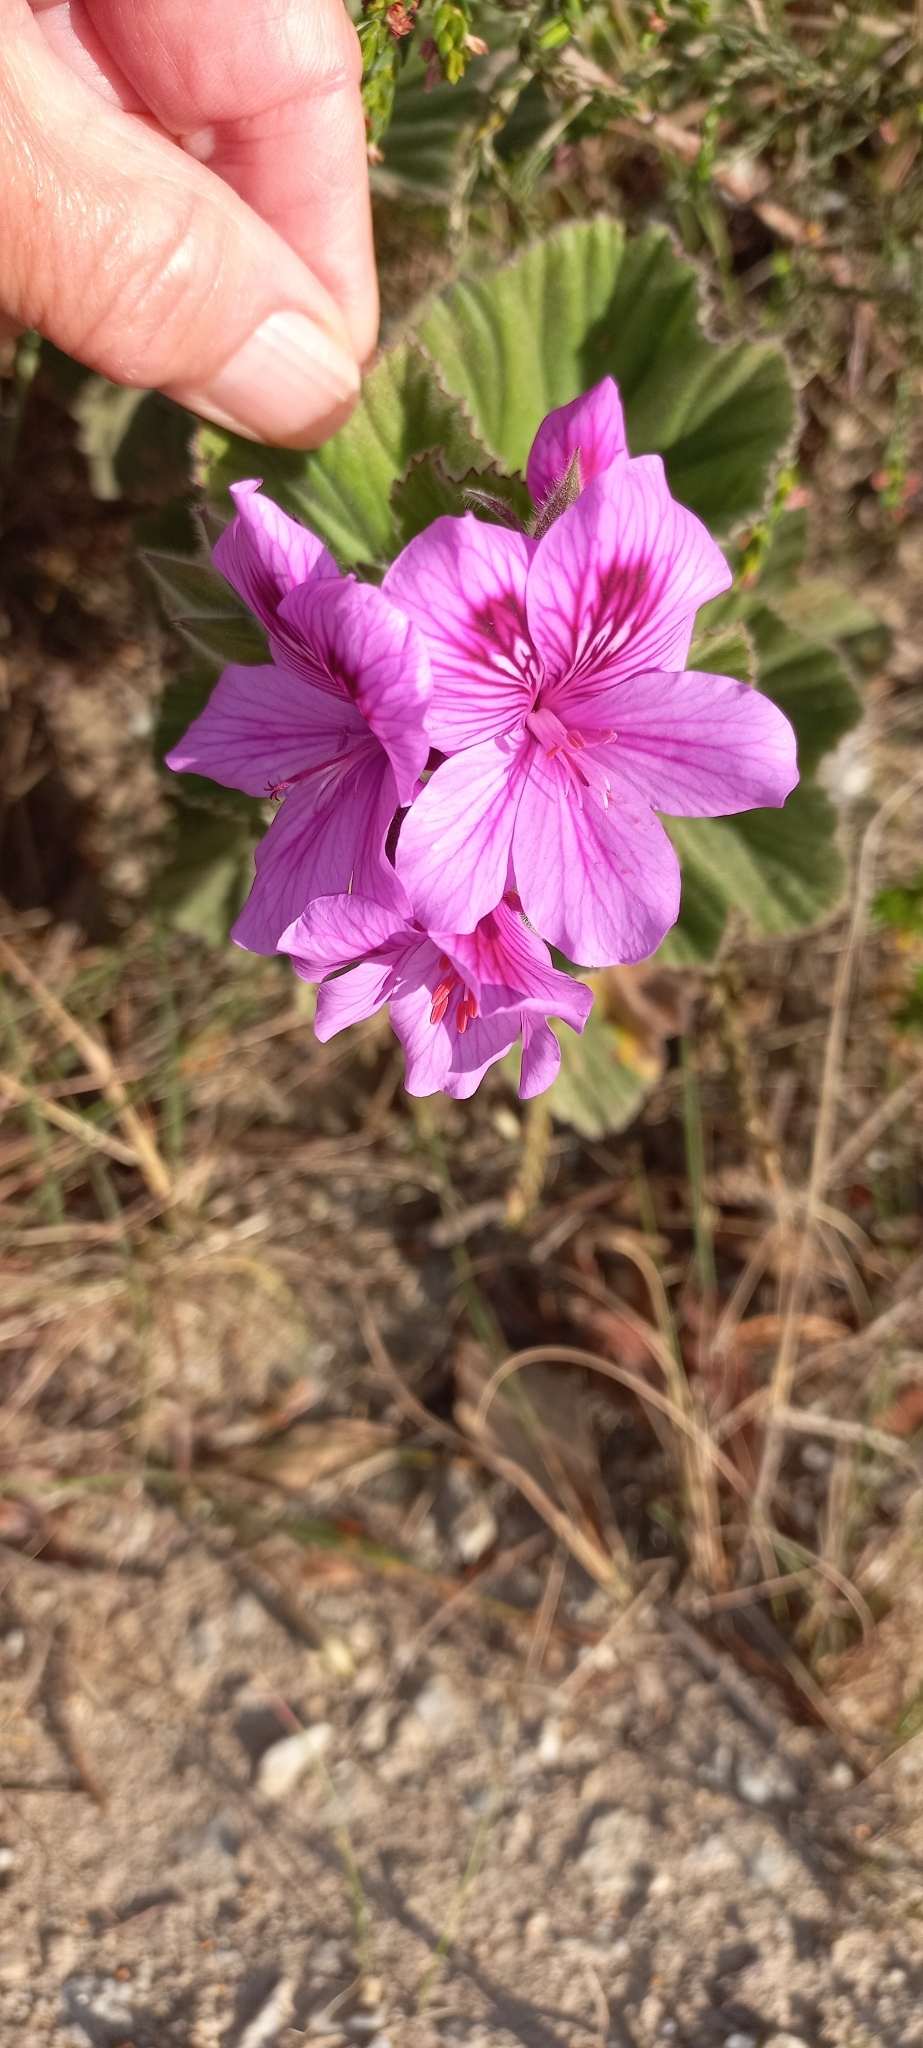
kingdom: Plantae
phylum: Tracheophyta
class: Magnoliopsida
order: Geraniales
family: Geraniaceae
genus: Pelargonium
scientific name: Pelargonium cucullatum
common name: Tree pelargonium
